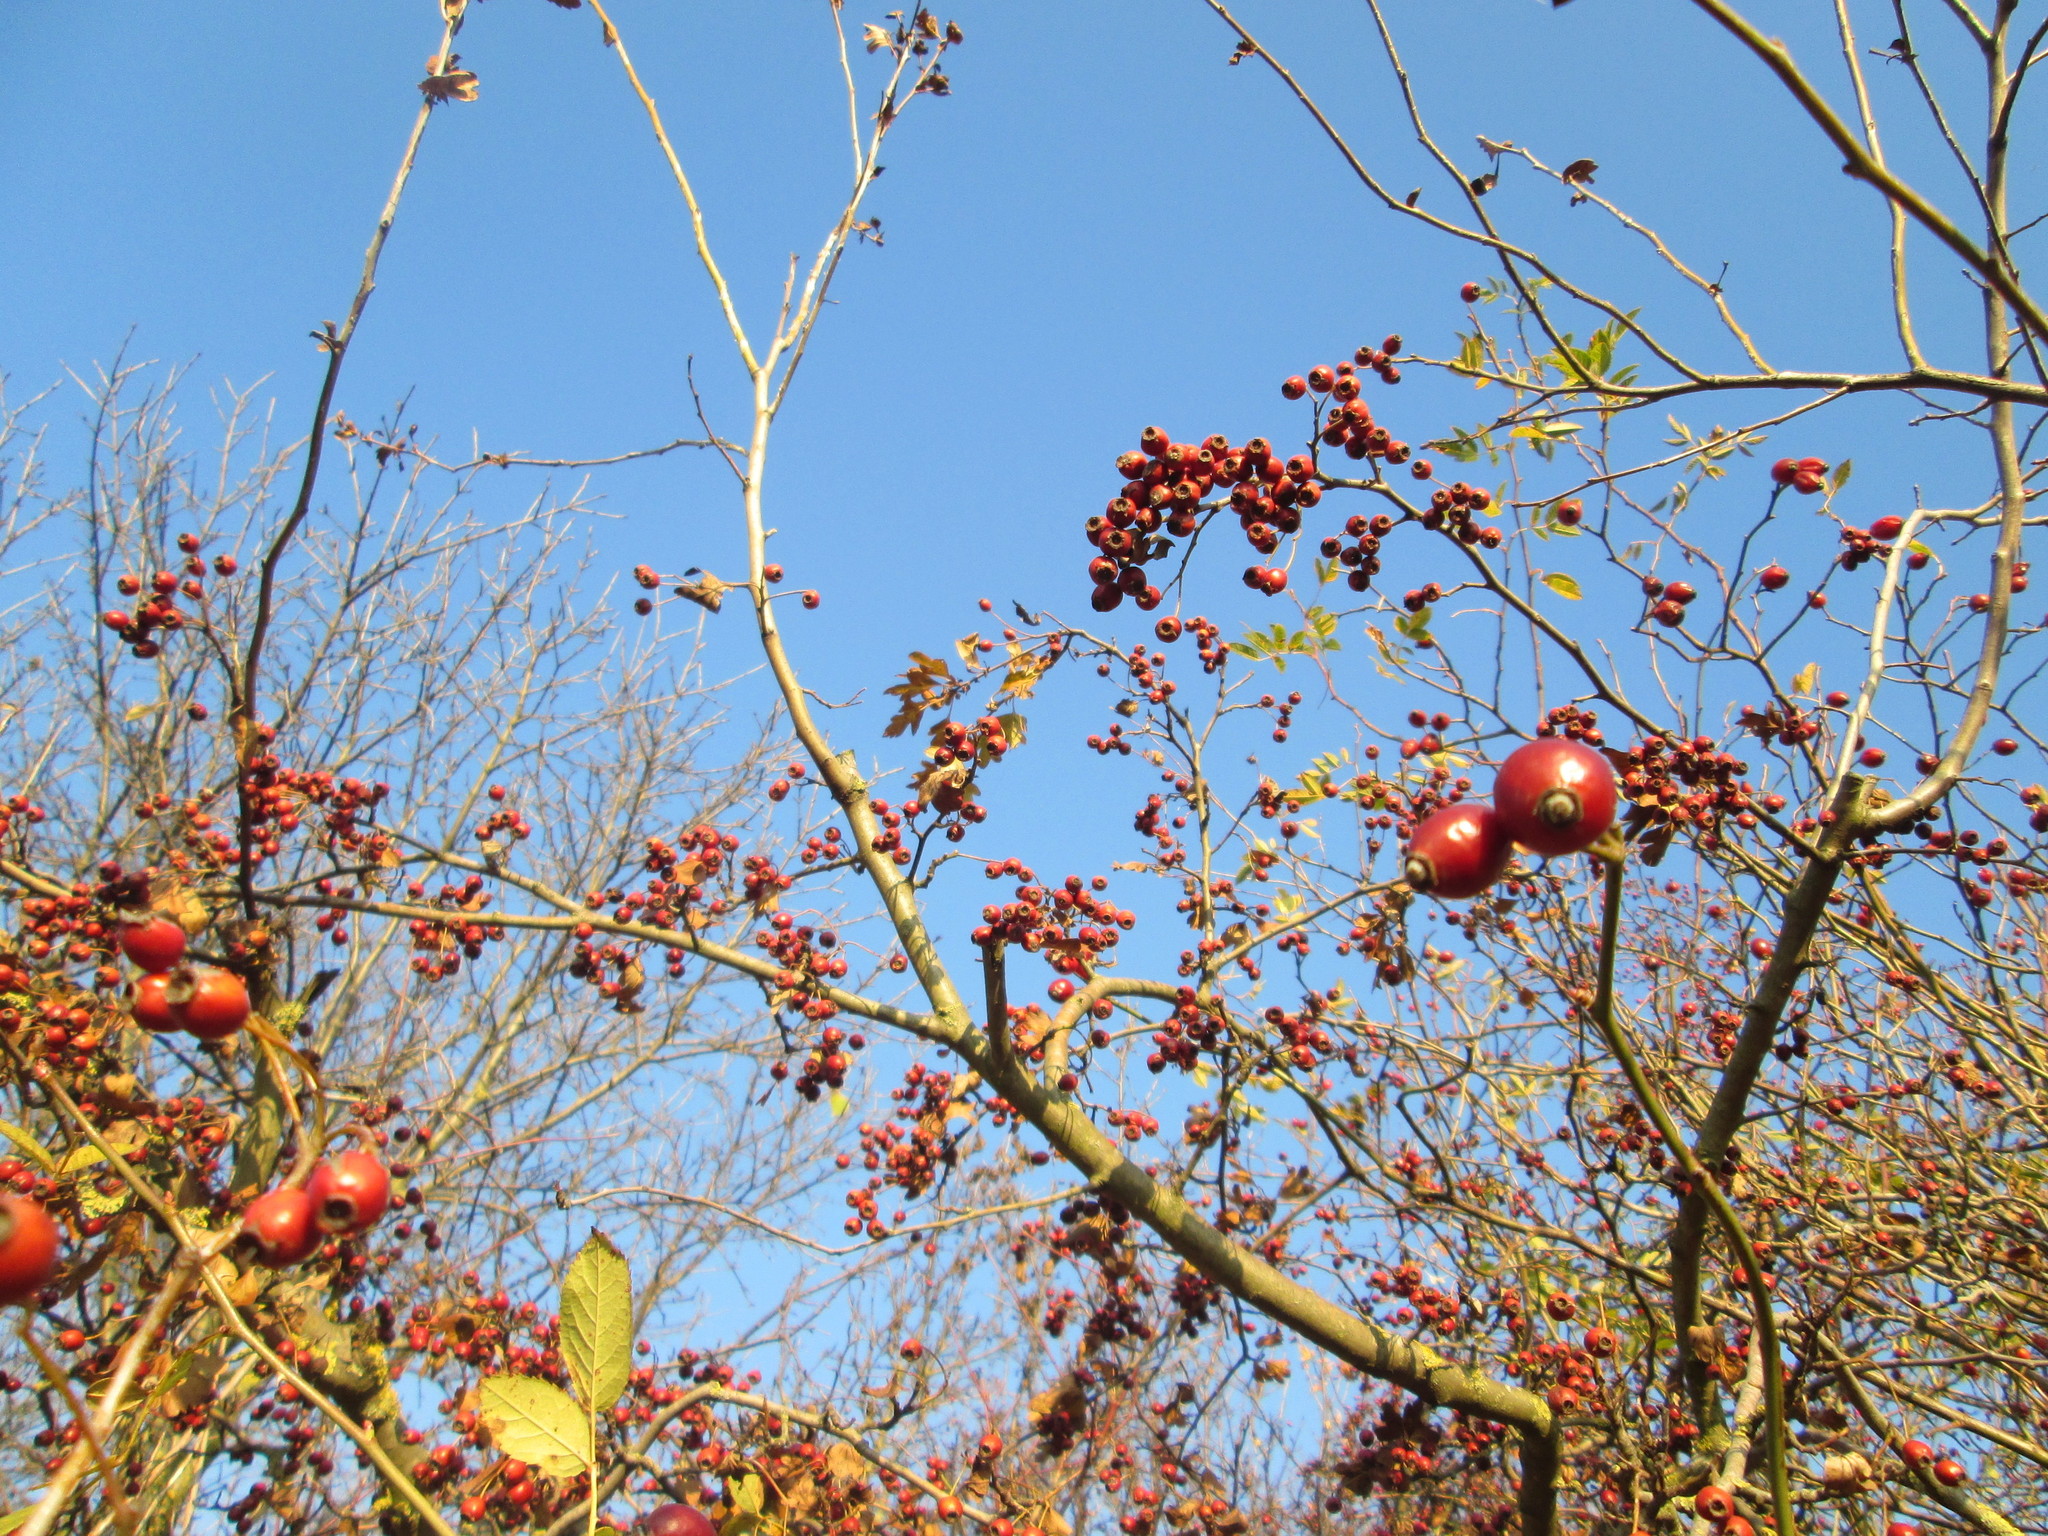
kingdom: Plantae
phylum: Tracheophyta
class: Magnoliopsida
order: Rosales
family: Rosaceae
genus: Crataegus
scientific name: Crataegus monogyna
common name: Hawthorn
